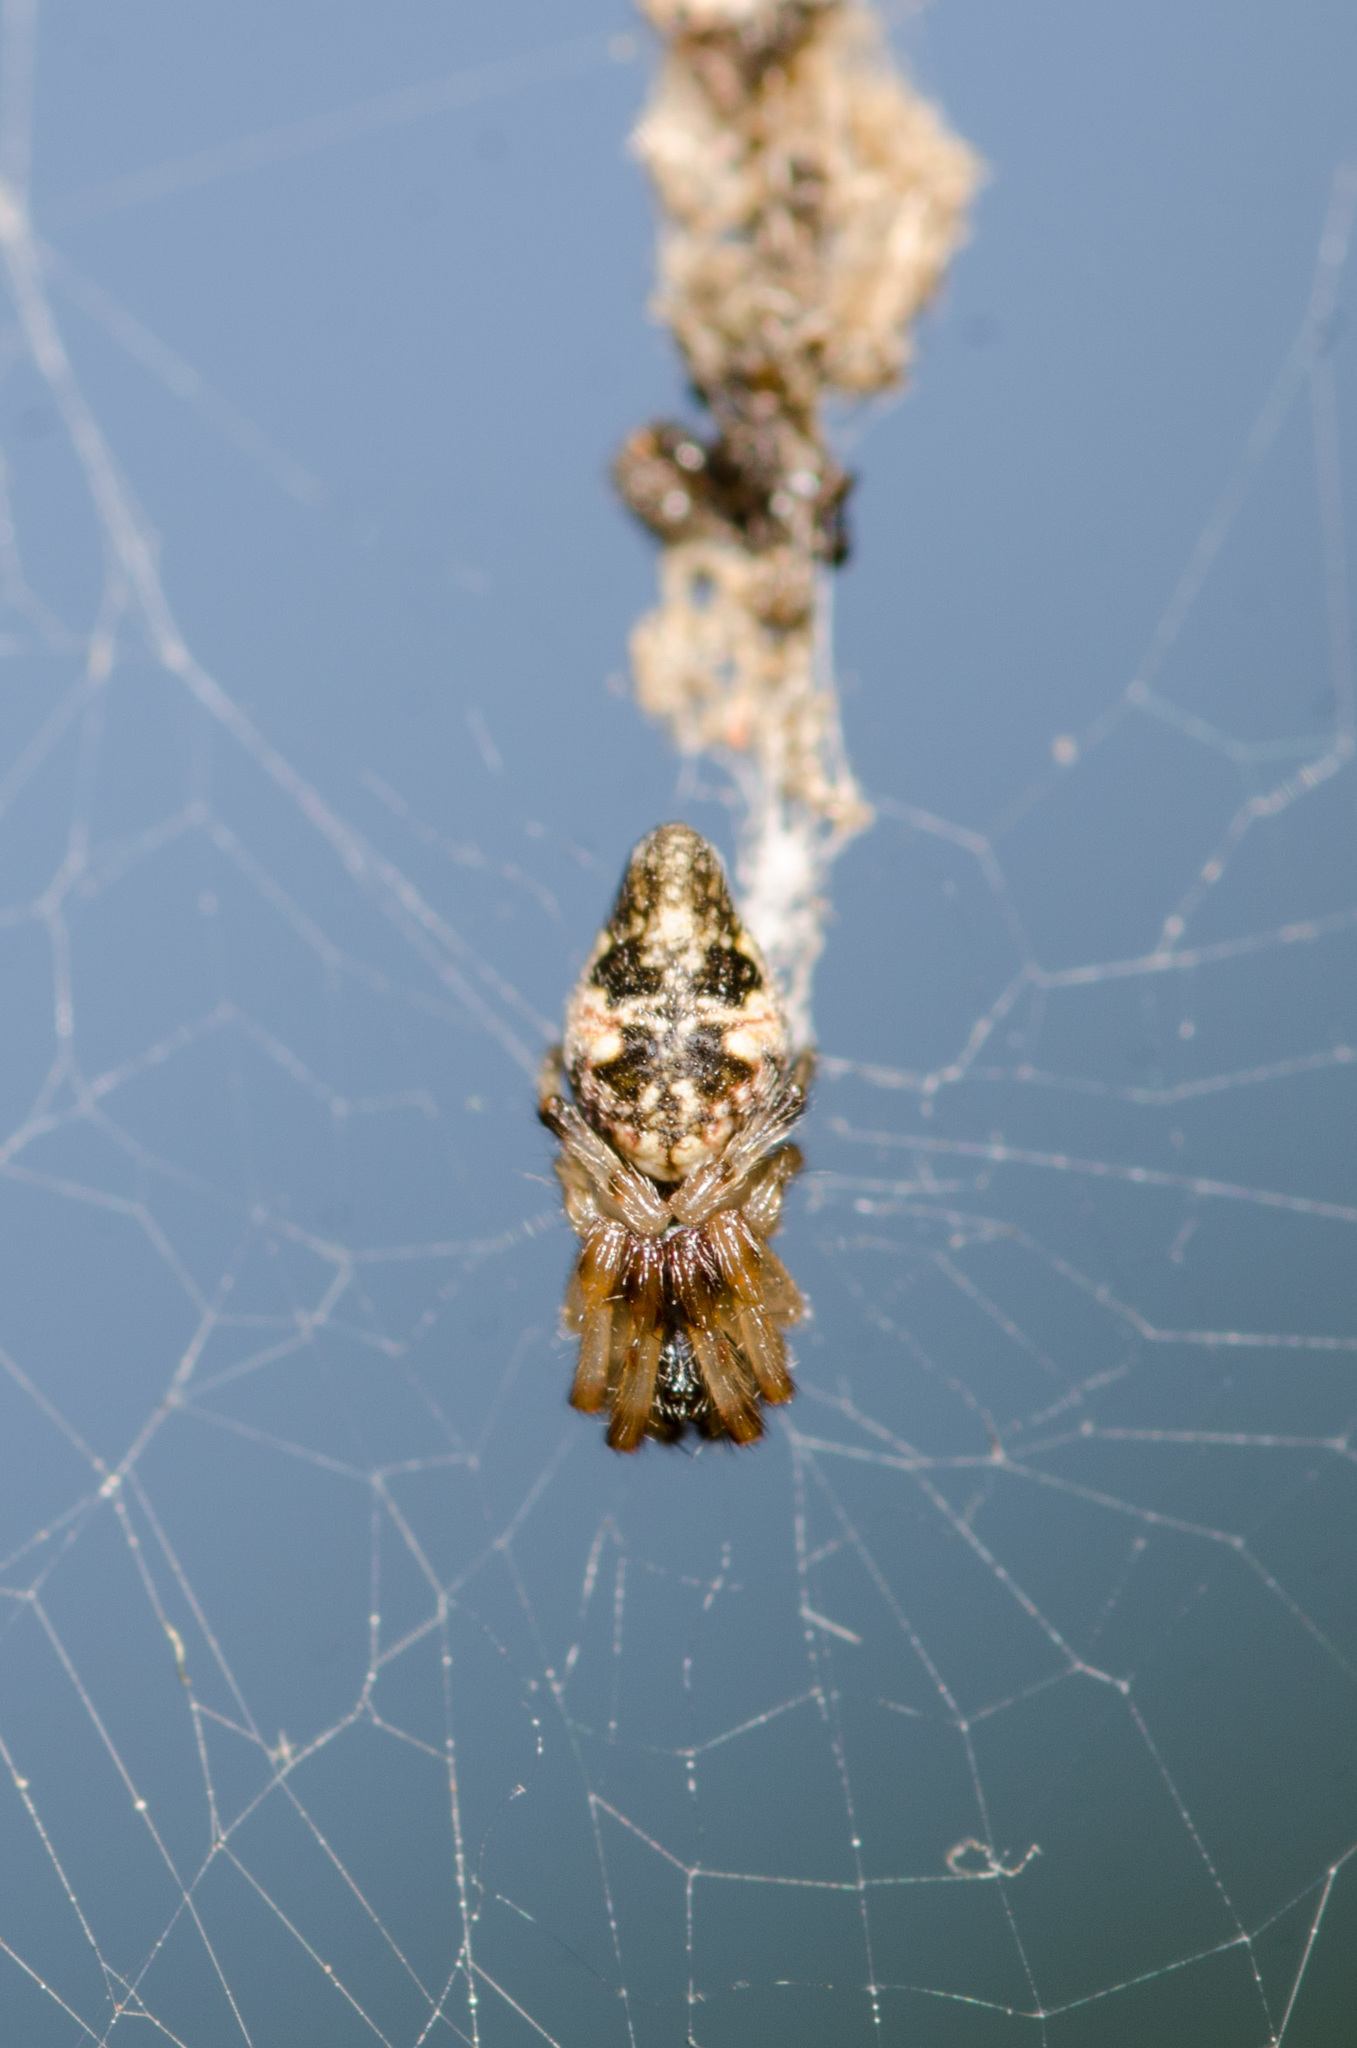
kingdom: Animalia
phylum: Arthropoda
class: Arachnida
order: Araneae
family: Araneidae
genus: Cyclosa
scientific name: Cyclosa turbinata
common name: Orb weavers
